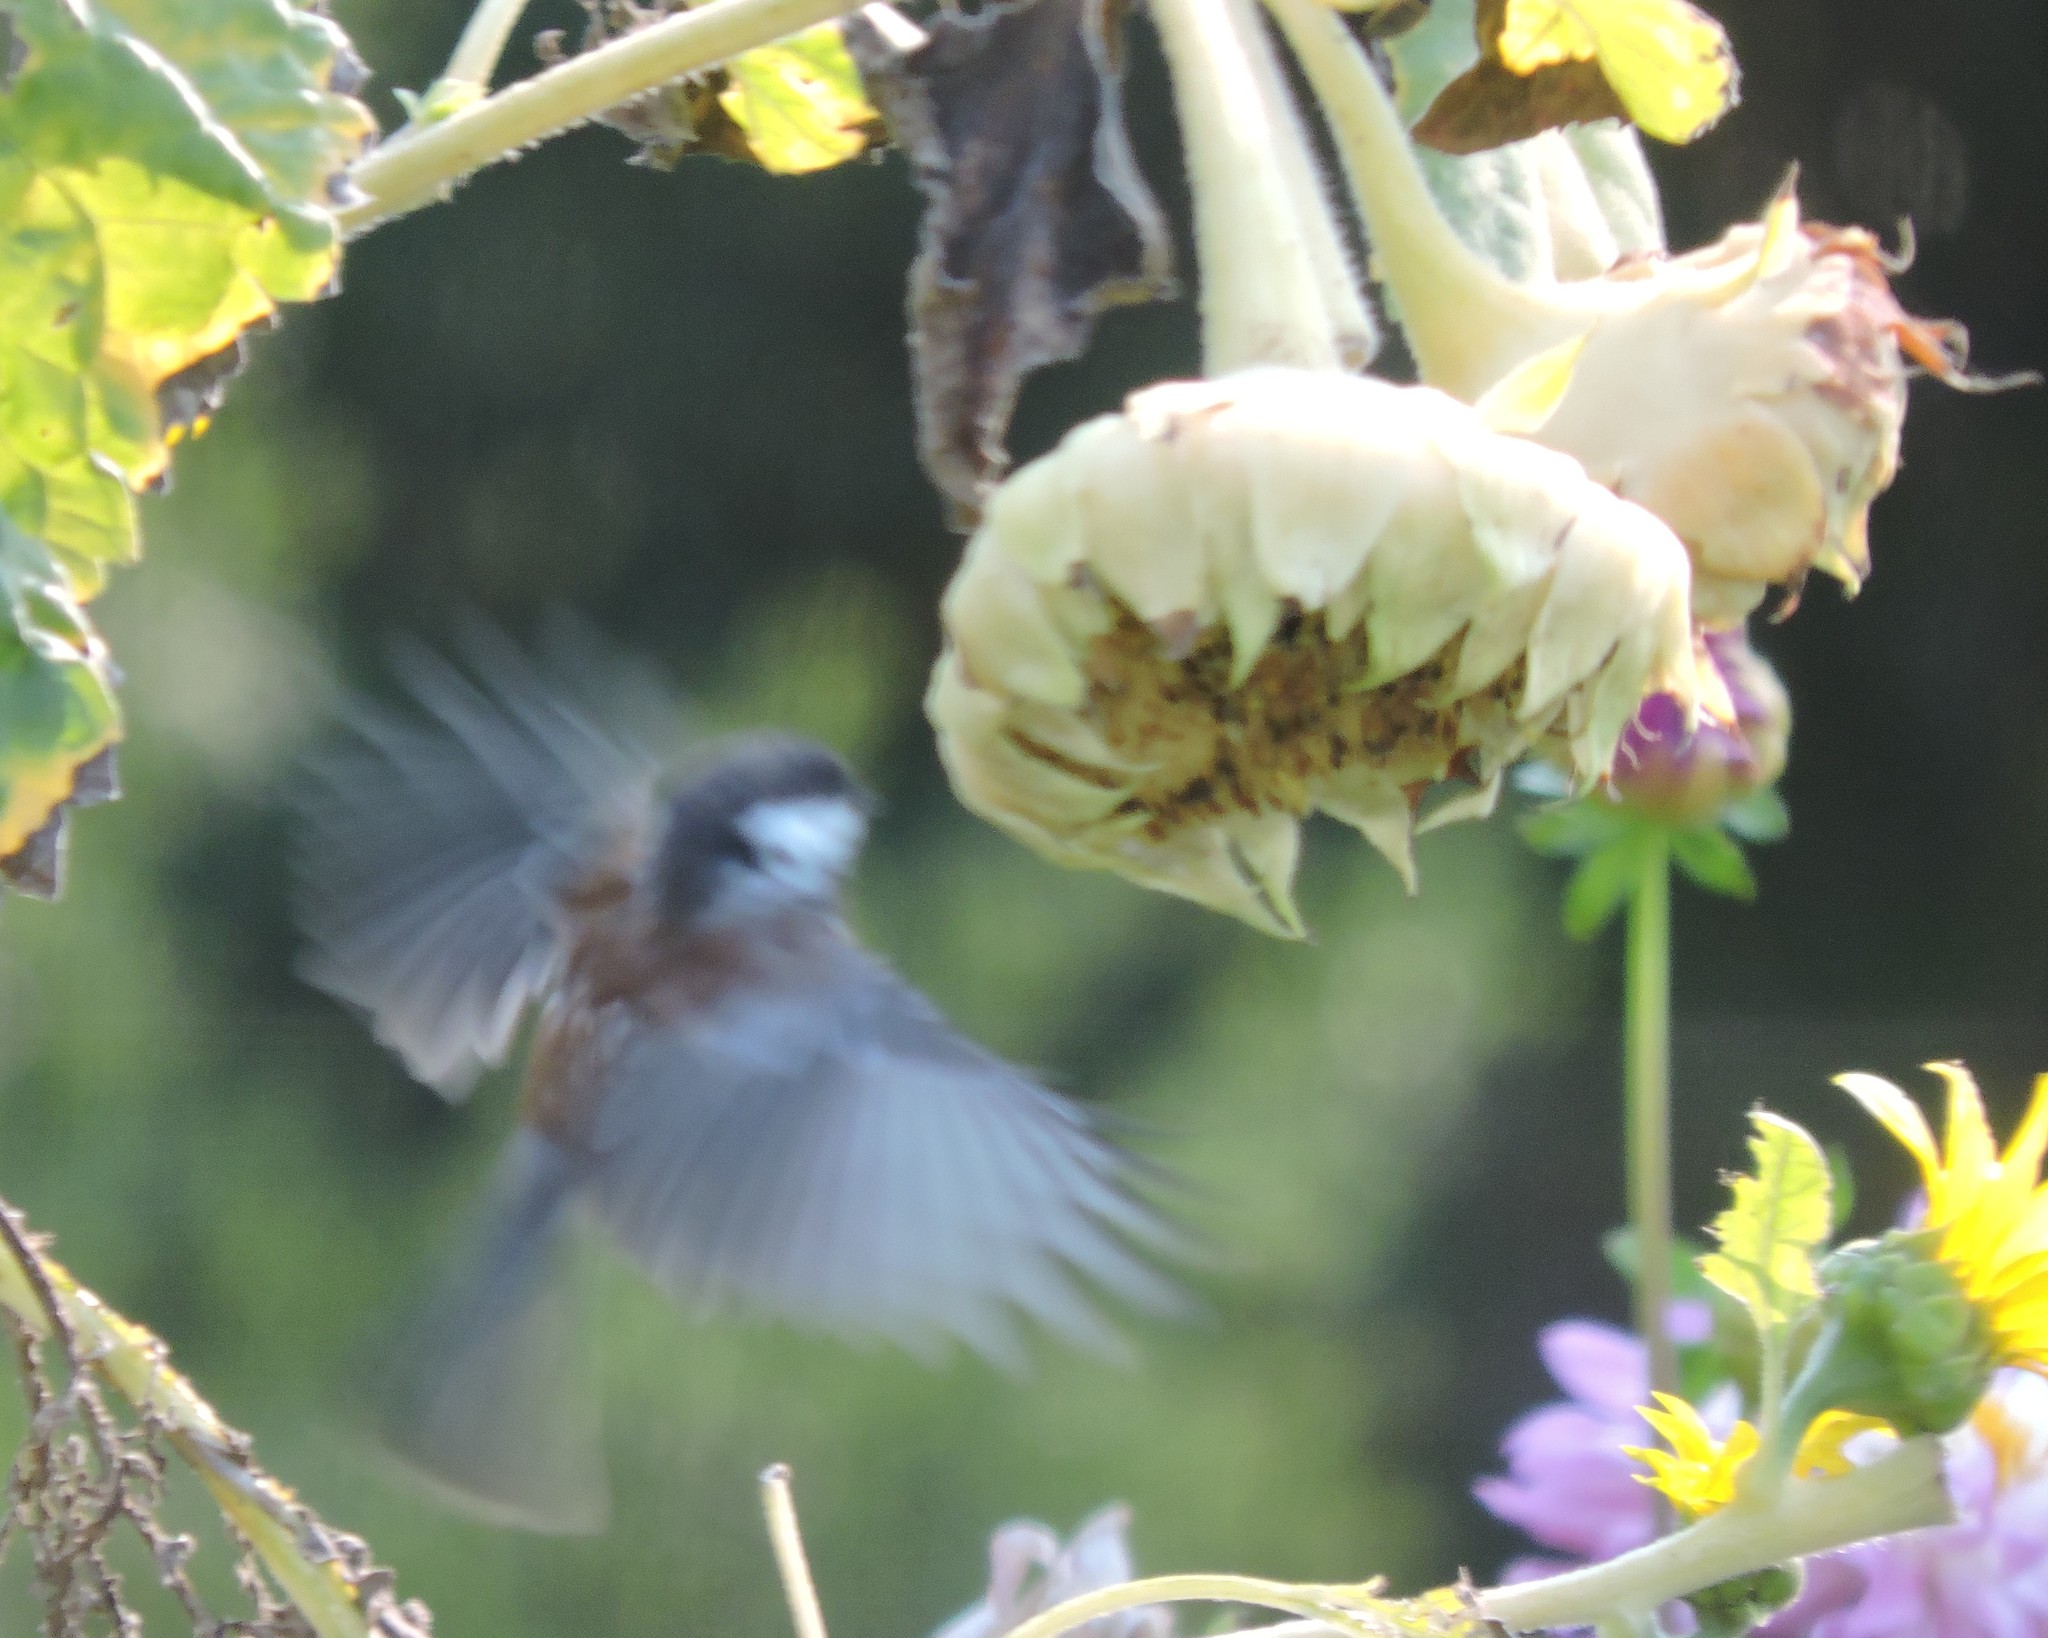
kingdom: Animalia
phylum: Chordata
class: Aves
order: Passeriformes
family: Paridae
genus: Poecile
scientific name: Poecile rufescens
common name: Chestnut-backed chickadee
